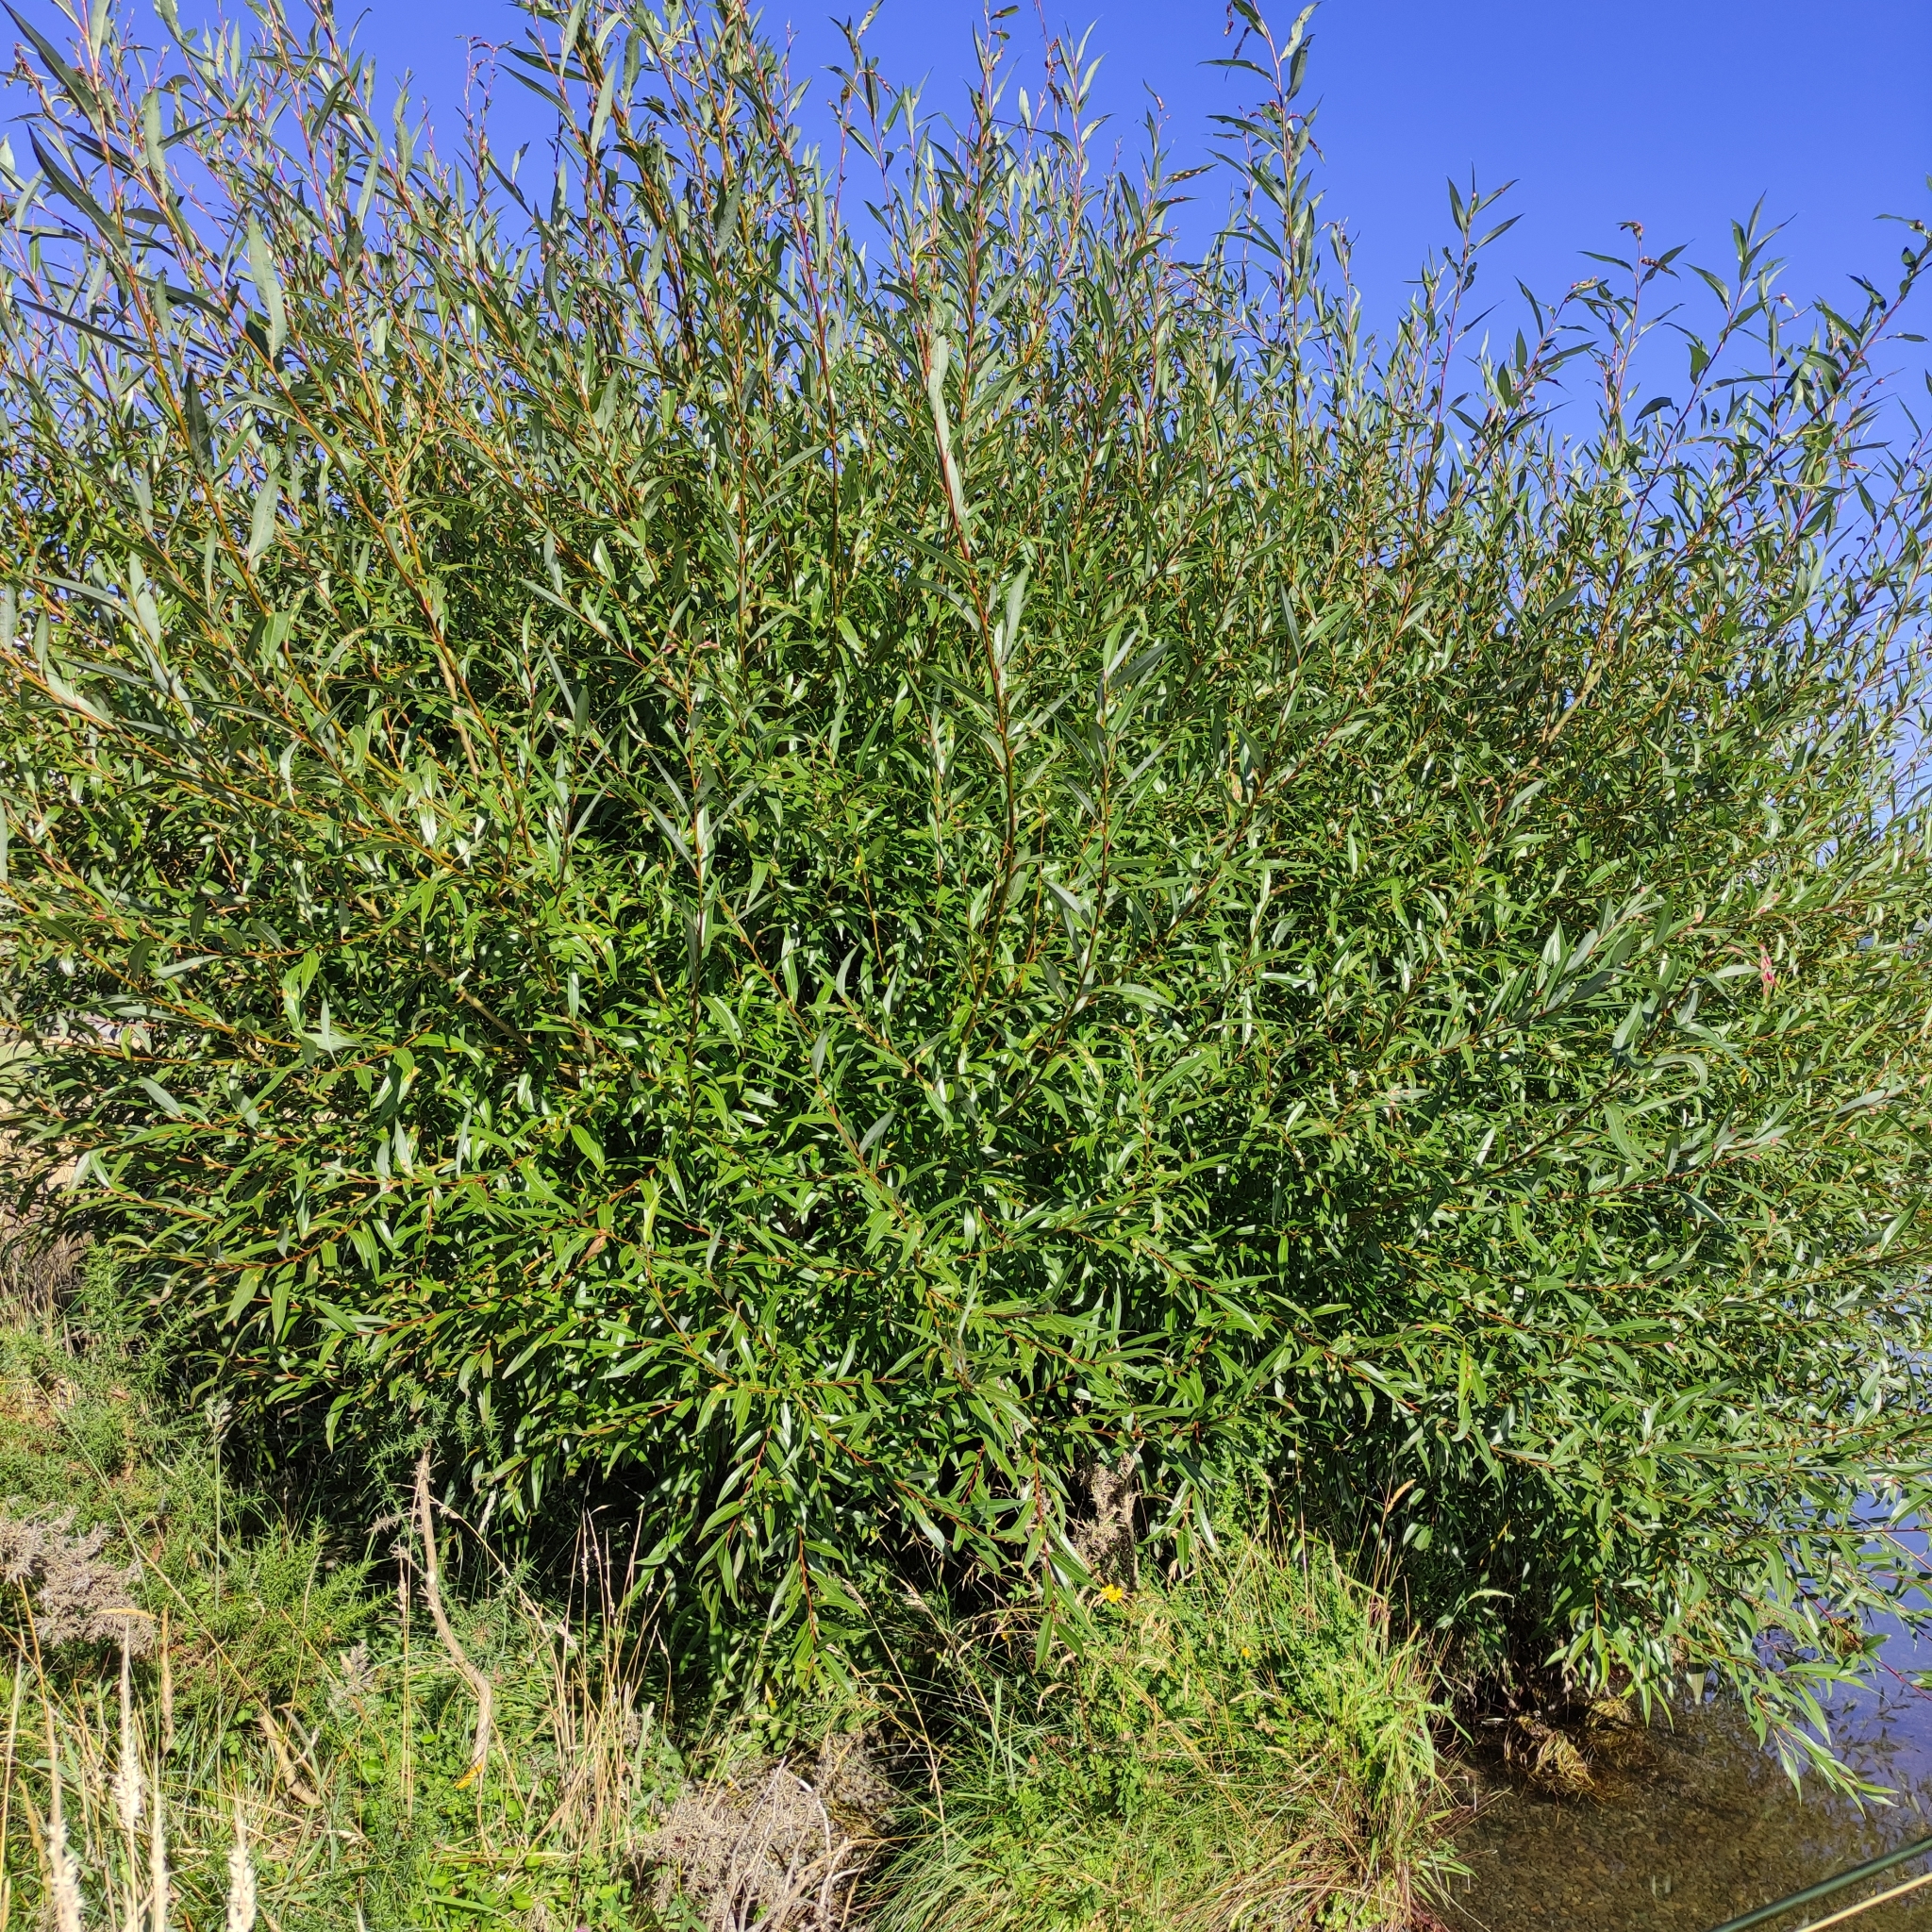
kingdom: Plantae
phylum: Tracheophyta
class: Magnoliopsida
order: Malpighiales
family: Salicaceae
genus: Salix
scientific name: Salix fragilis
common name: Crack willow
